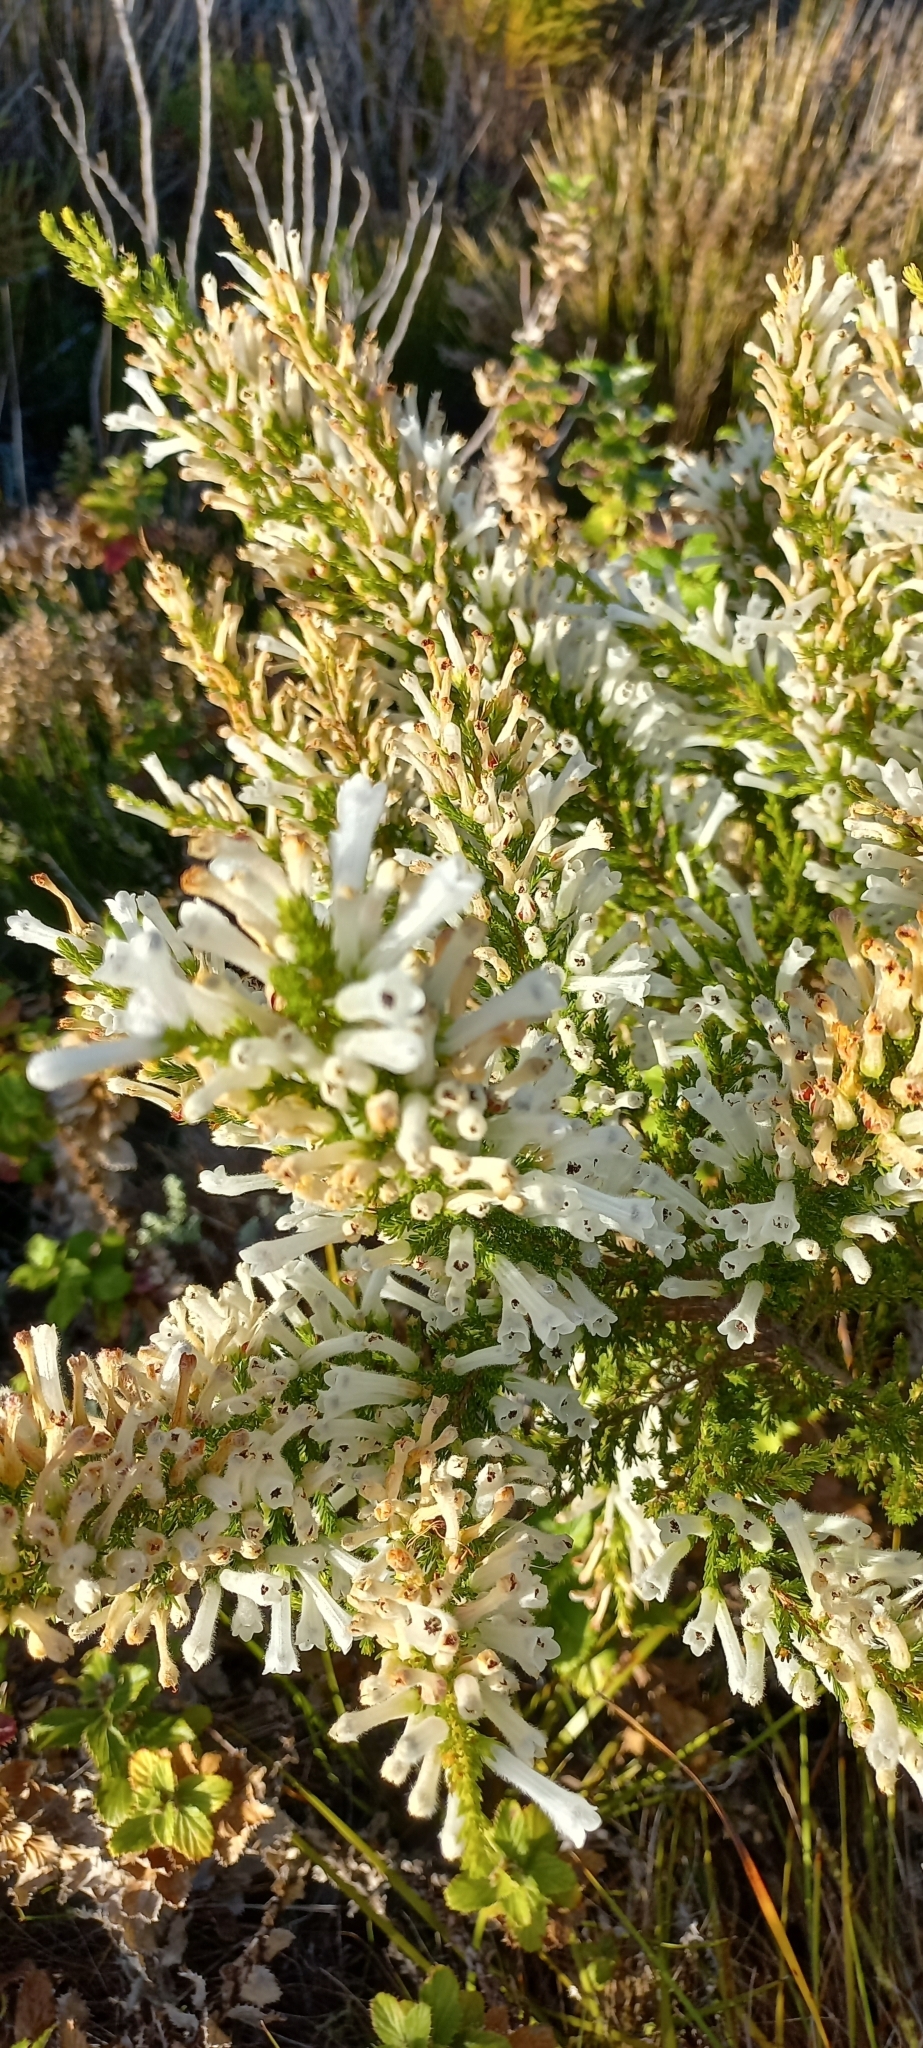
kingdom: Plantae
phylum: Tracheophyta
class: Magnoliopsida
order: Ericales
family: Ericaceae
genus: Erica
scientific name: Erica perspicua
